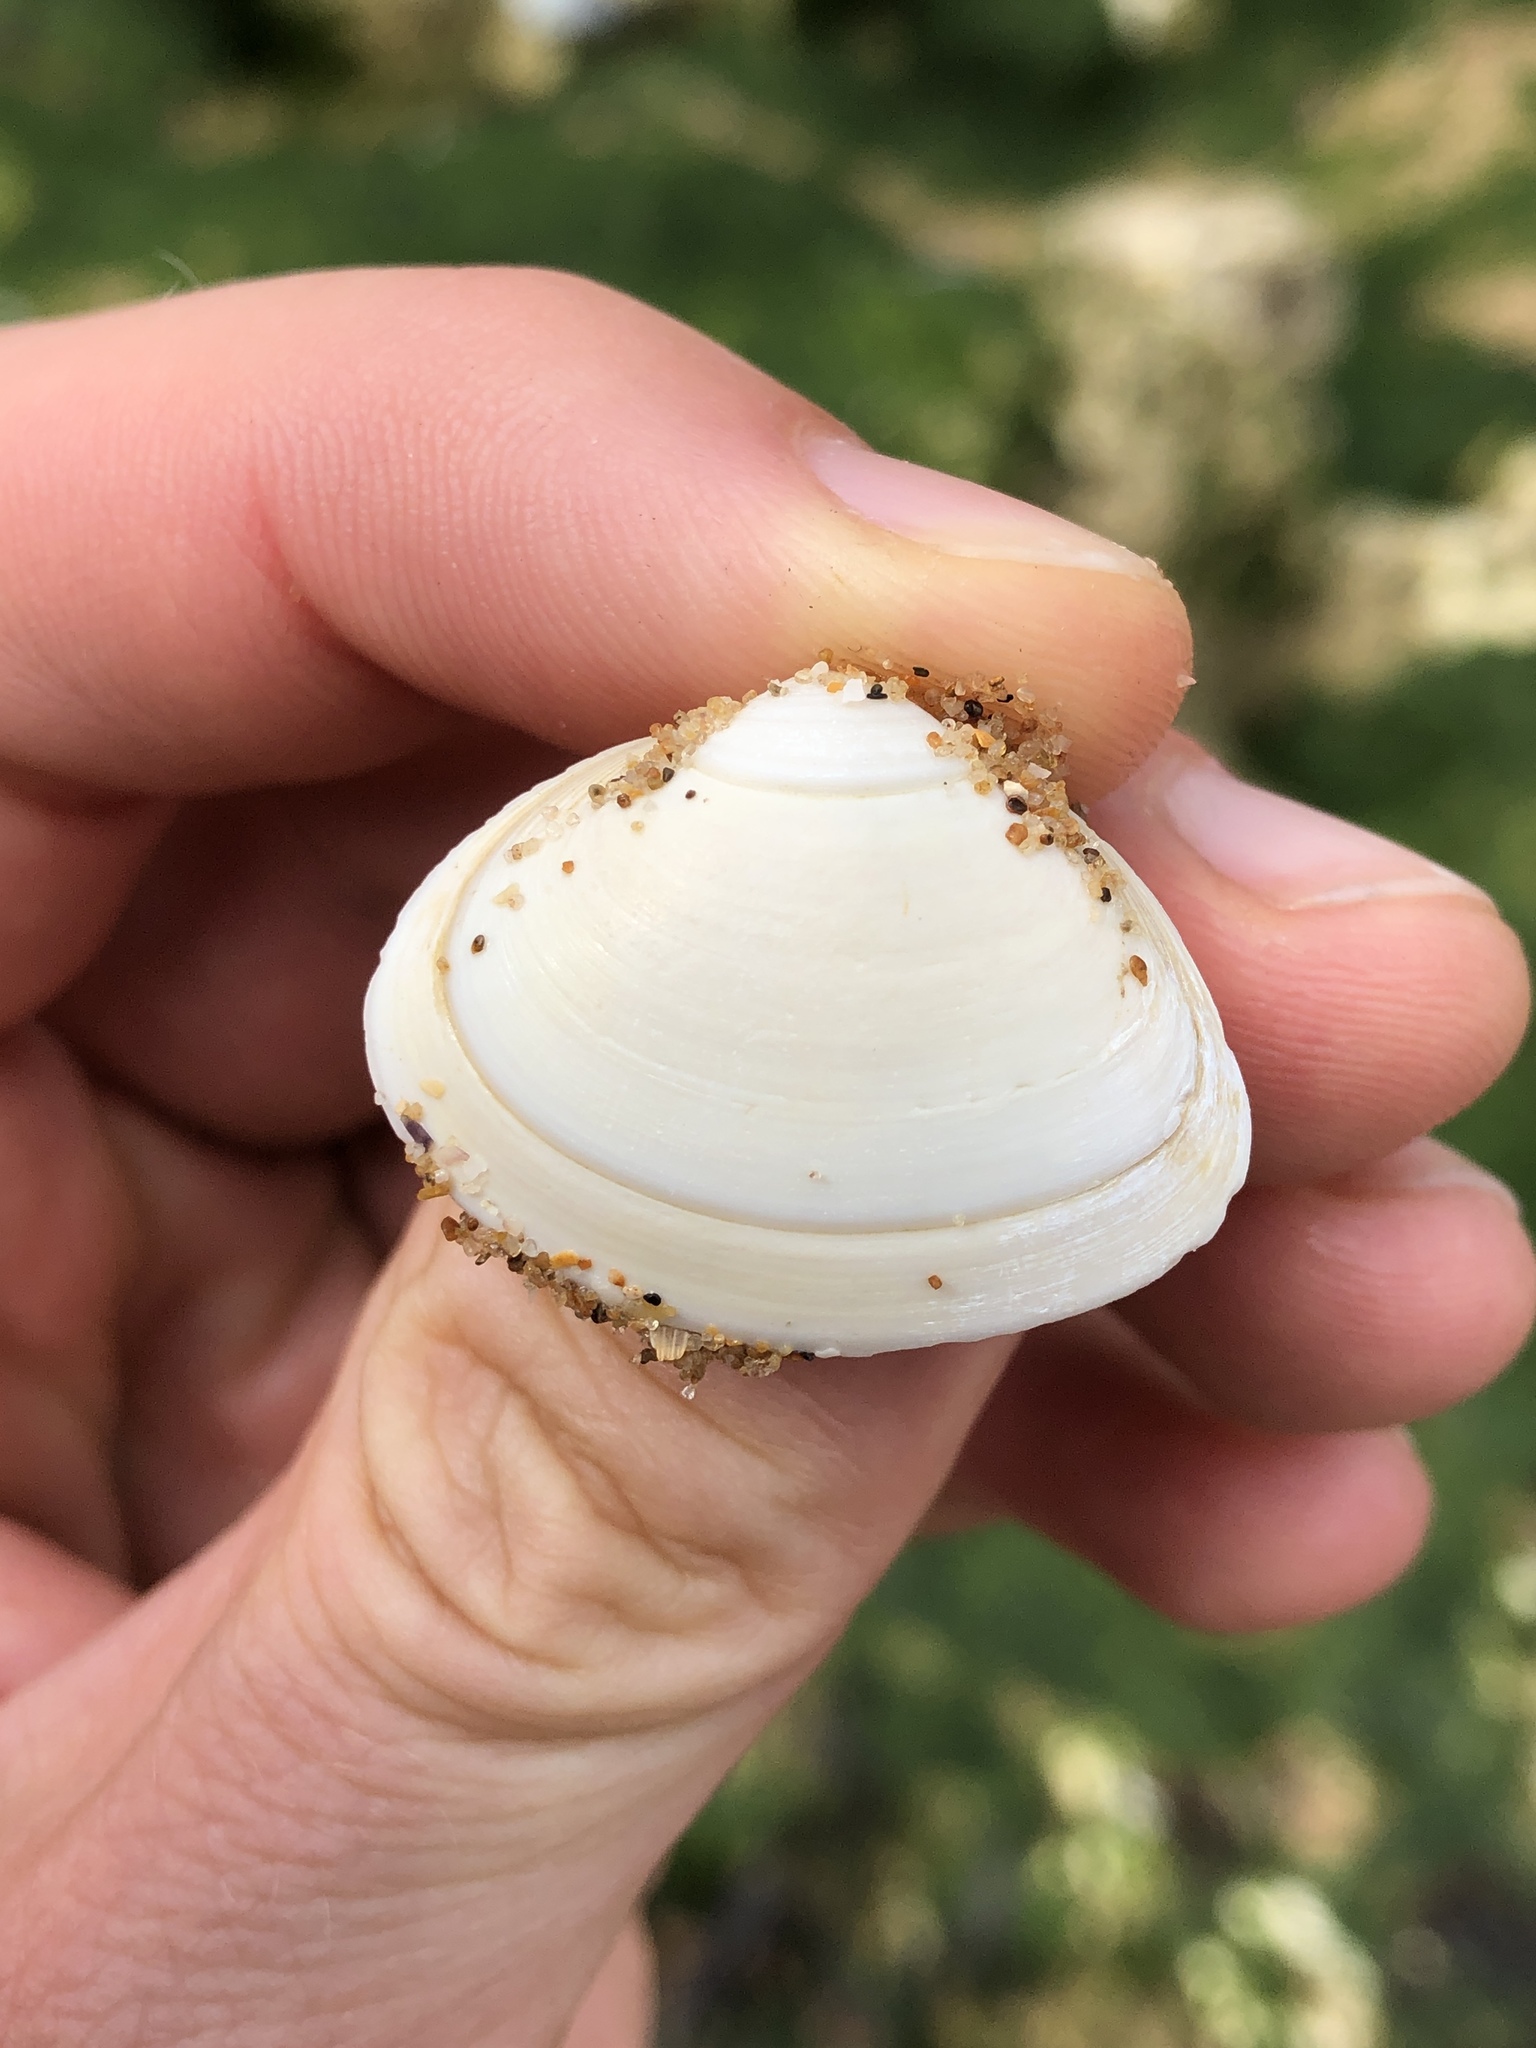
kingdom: Animalia
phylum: Mollusca
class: Bivalvia
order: Venerida
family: Mactridae
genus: Spisula
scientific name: Spisula solida
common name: Thick trough shell
